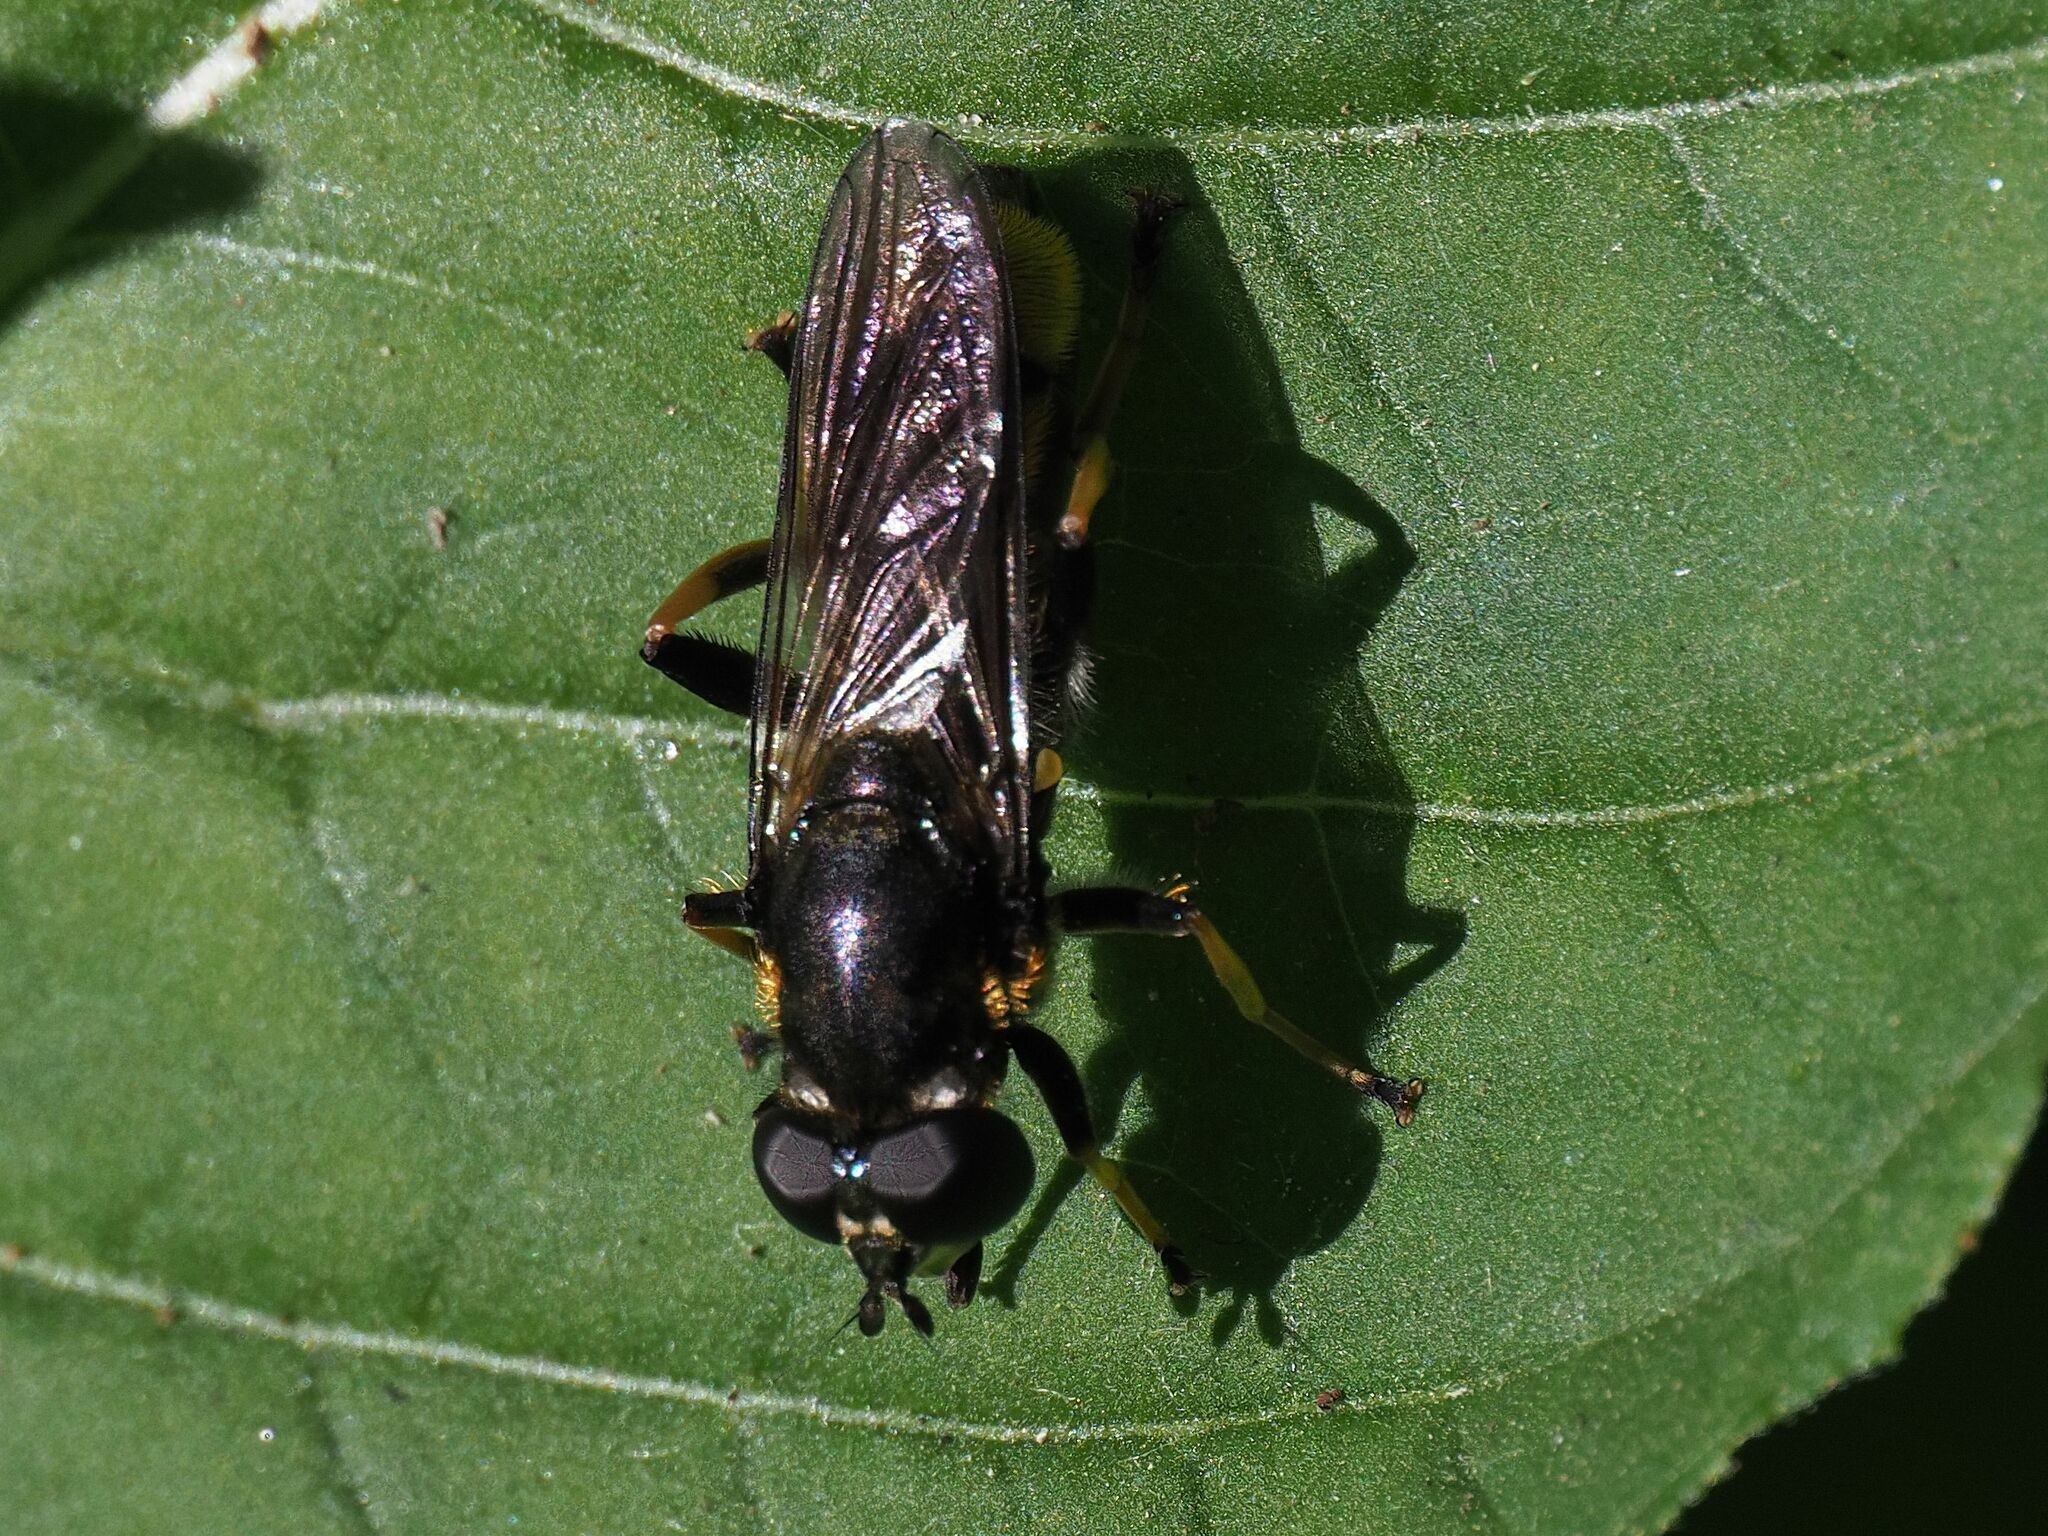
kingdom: Animalia
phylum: Arthropoda
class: Insecta
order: Diptera
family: Syrphidae
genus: Xylota
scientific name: Xylota sylvarum
